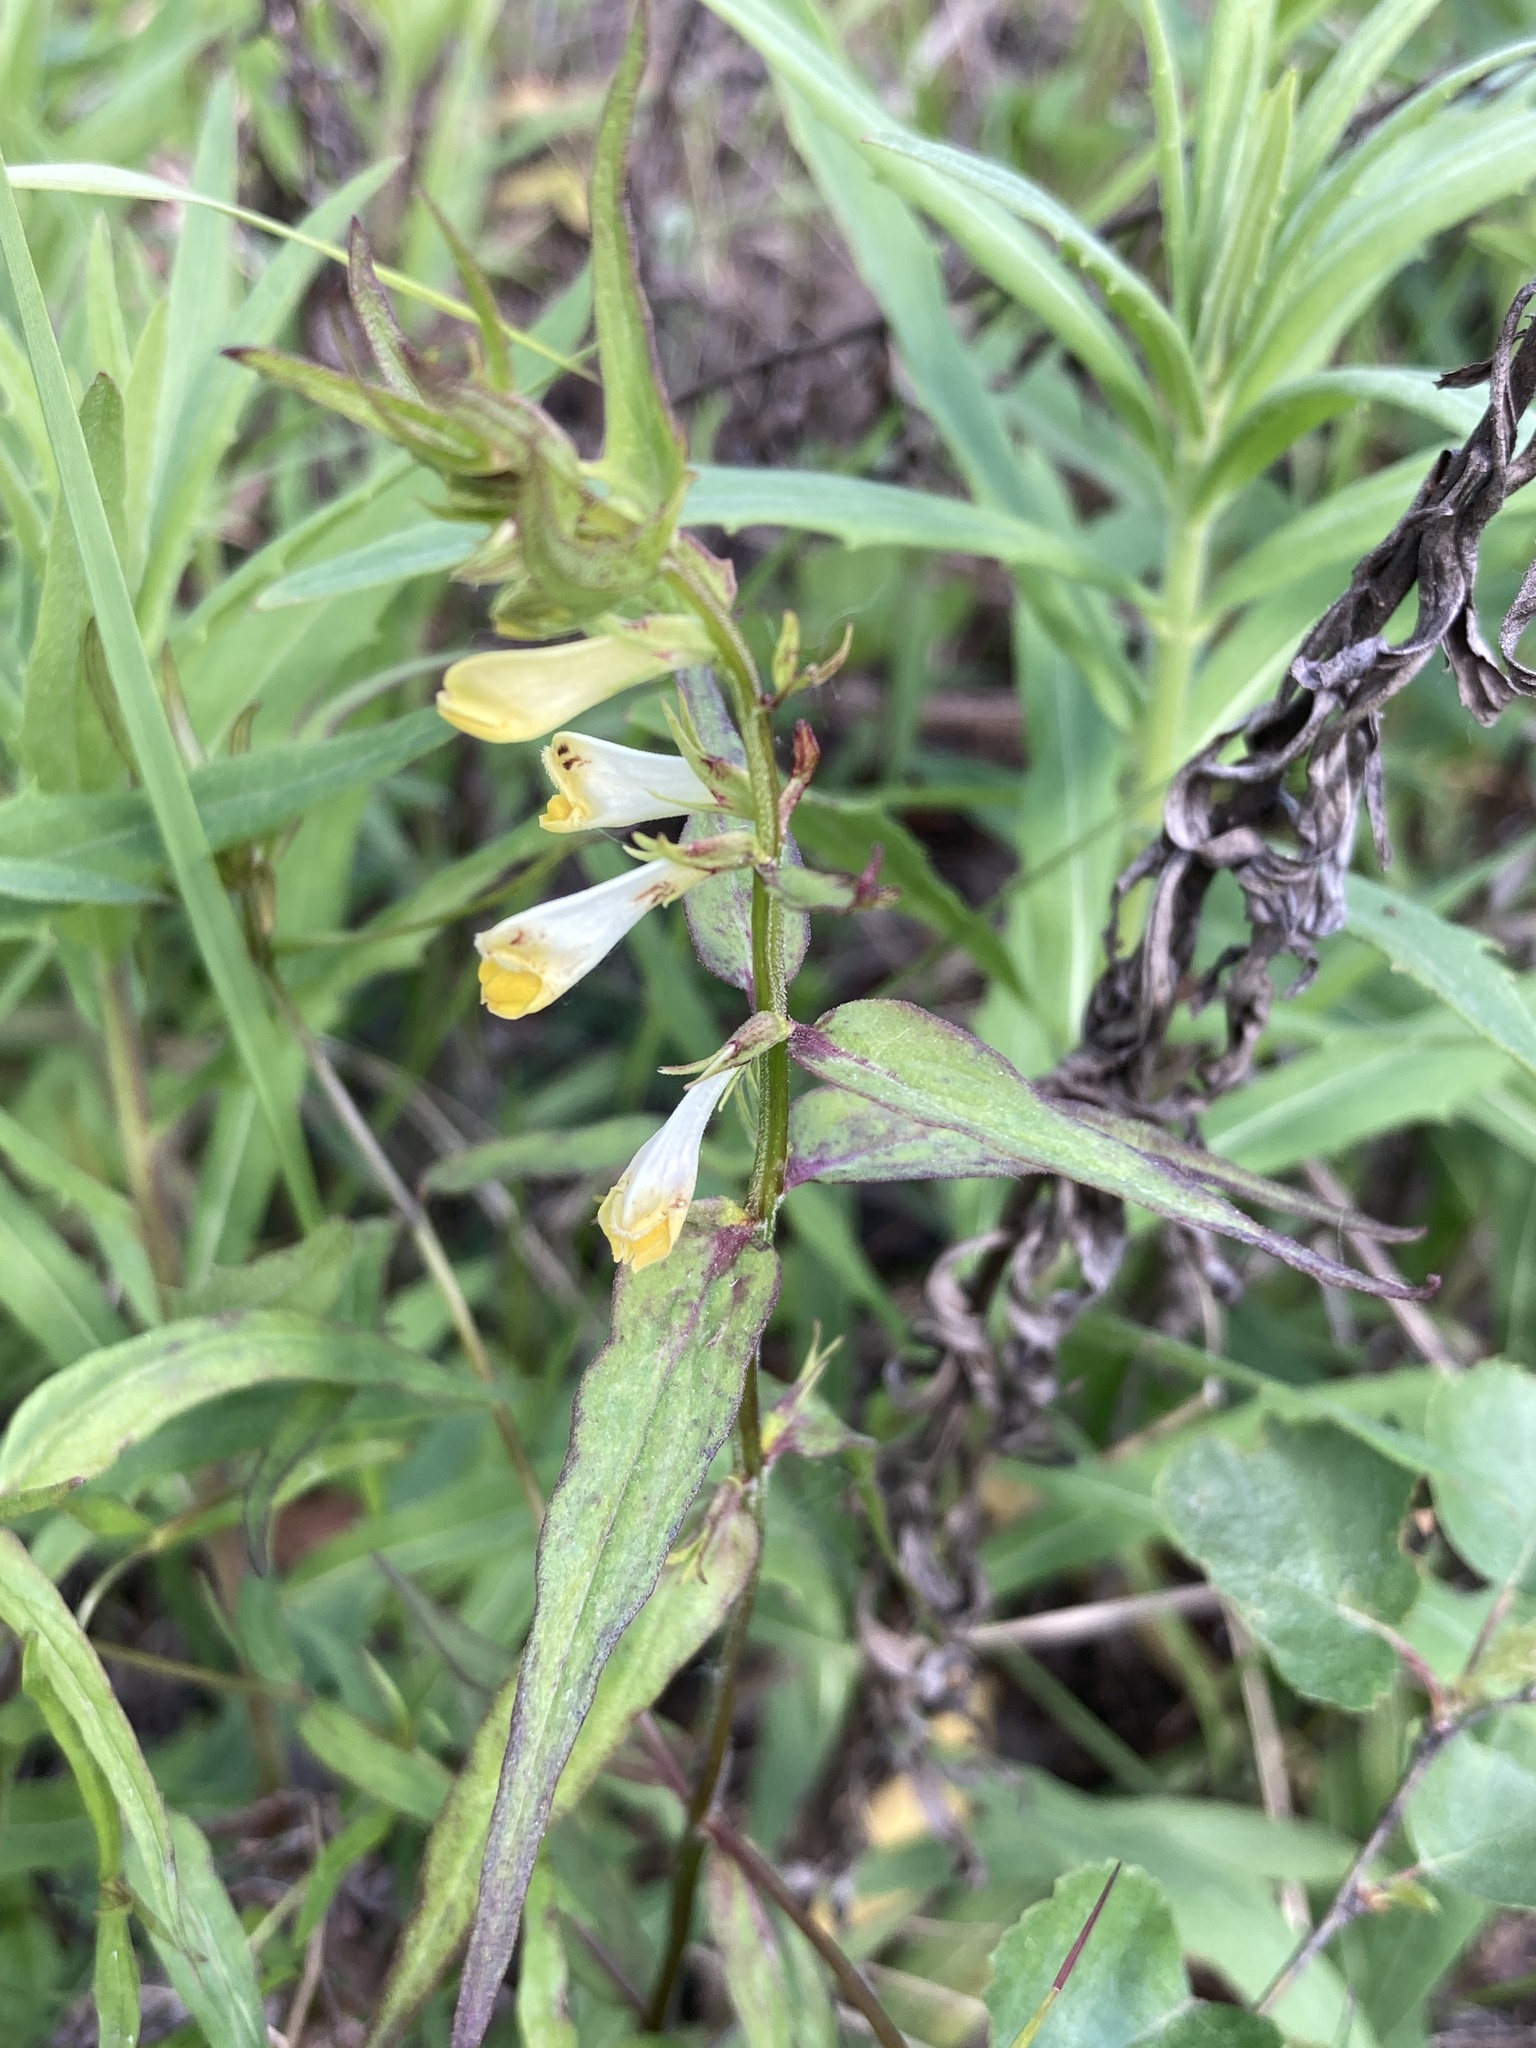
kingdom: Plantae
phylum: Tracheophyta
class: Magnoliopsida
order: Lamiales
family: Orobanchaceae
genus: Melampyrum
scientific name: Melampyrum pratense
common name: Common cow-wheat
